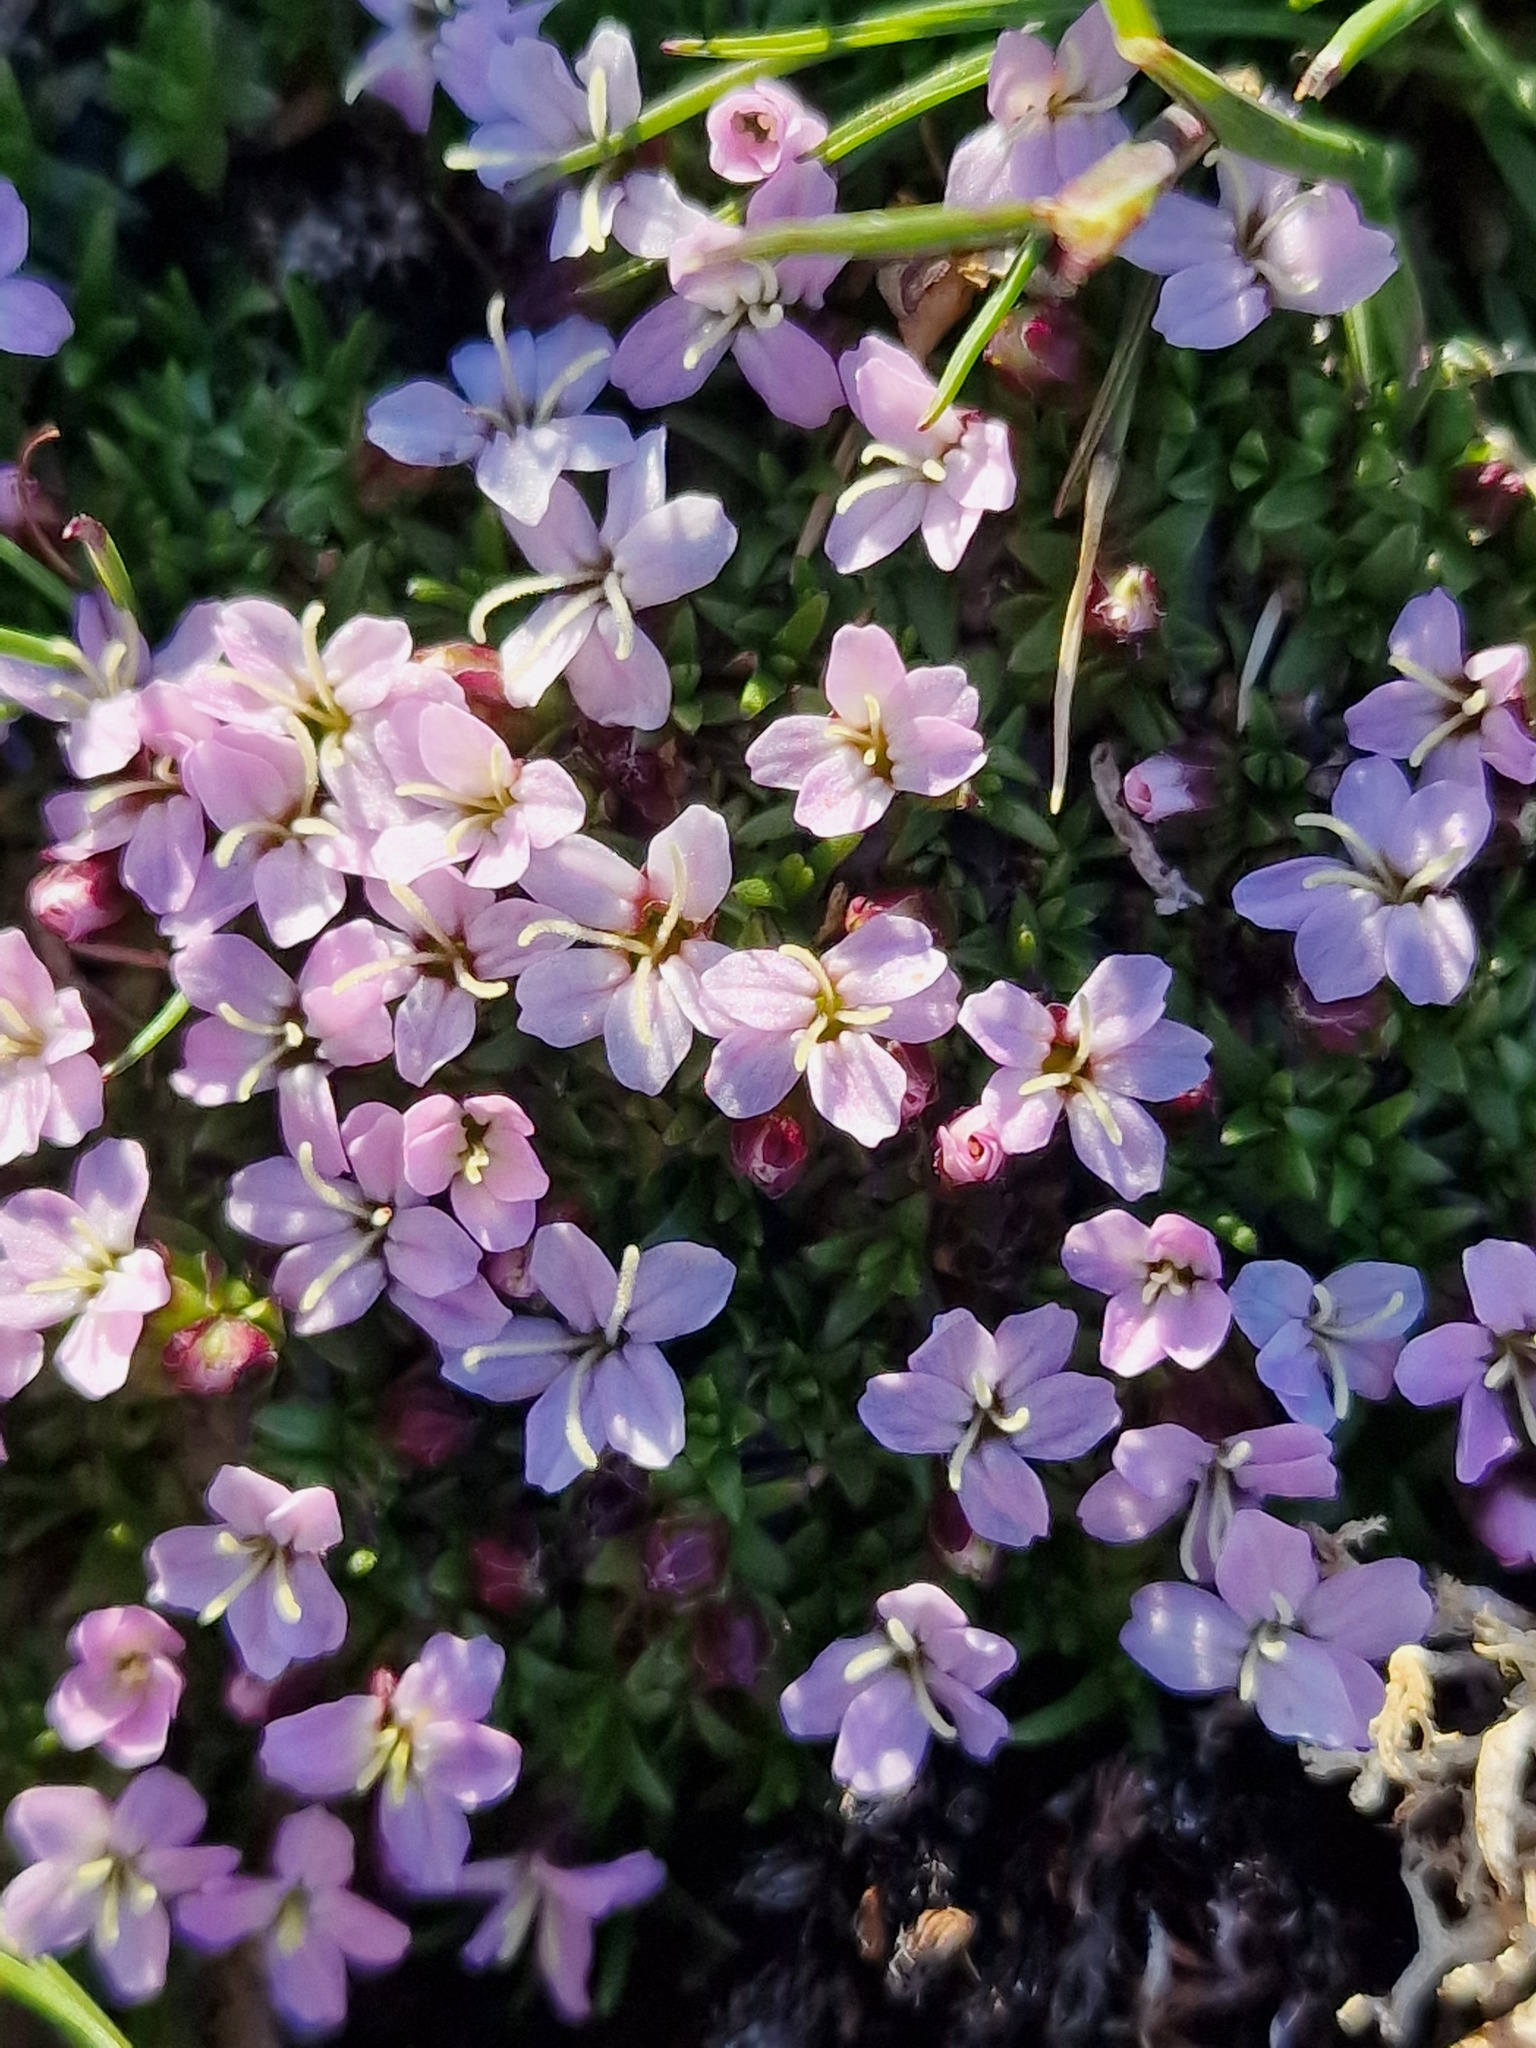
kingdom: Plantae
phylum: Tracheophyta
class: Magnoliopsida
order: Caryophyllales
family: Caryophyllaceae
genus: Silene
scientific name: Silene acaulis
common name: Moss campion
